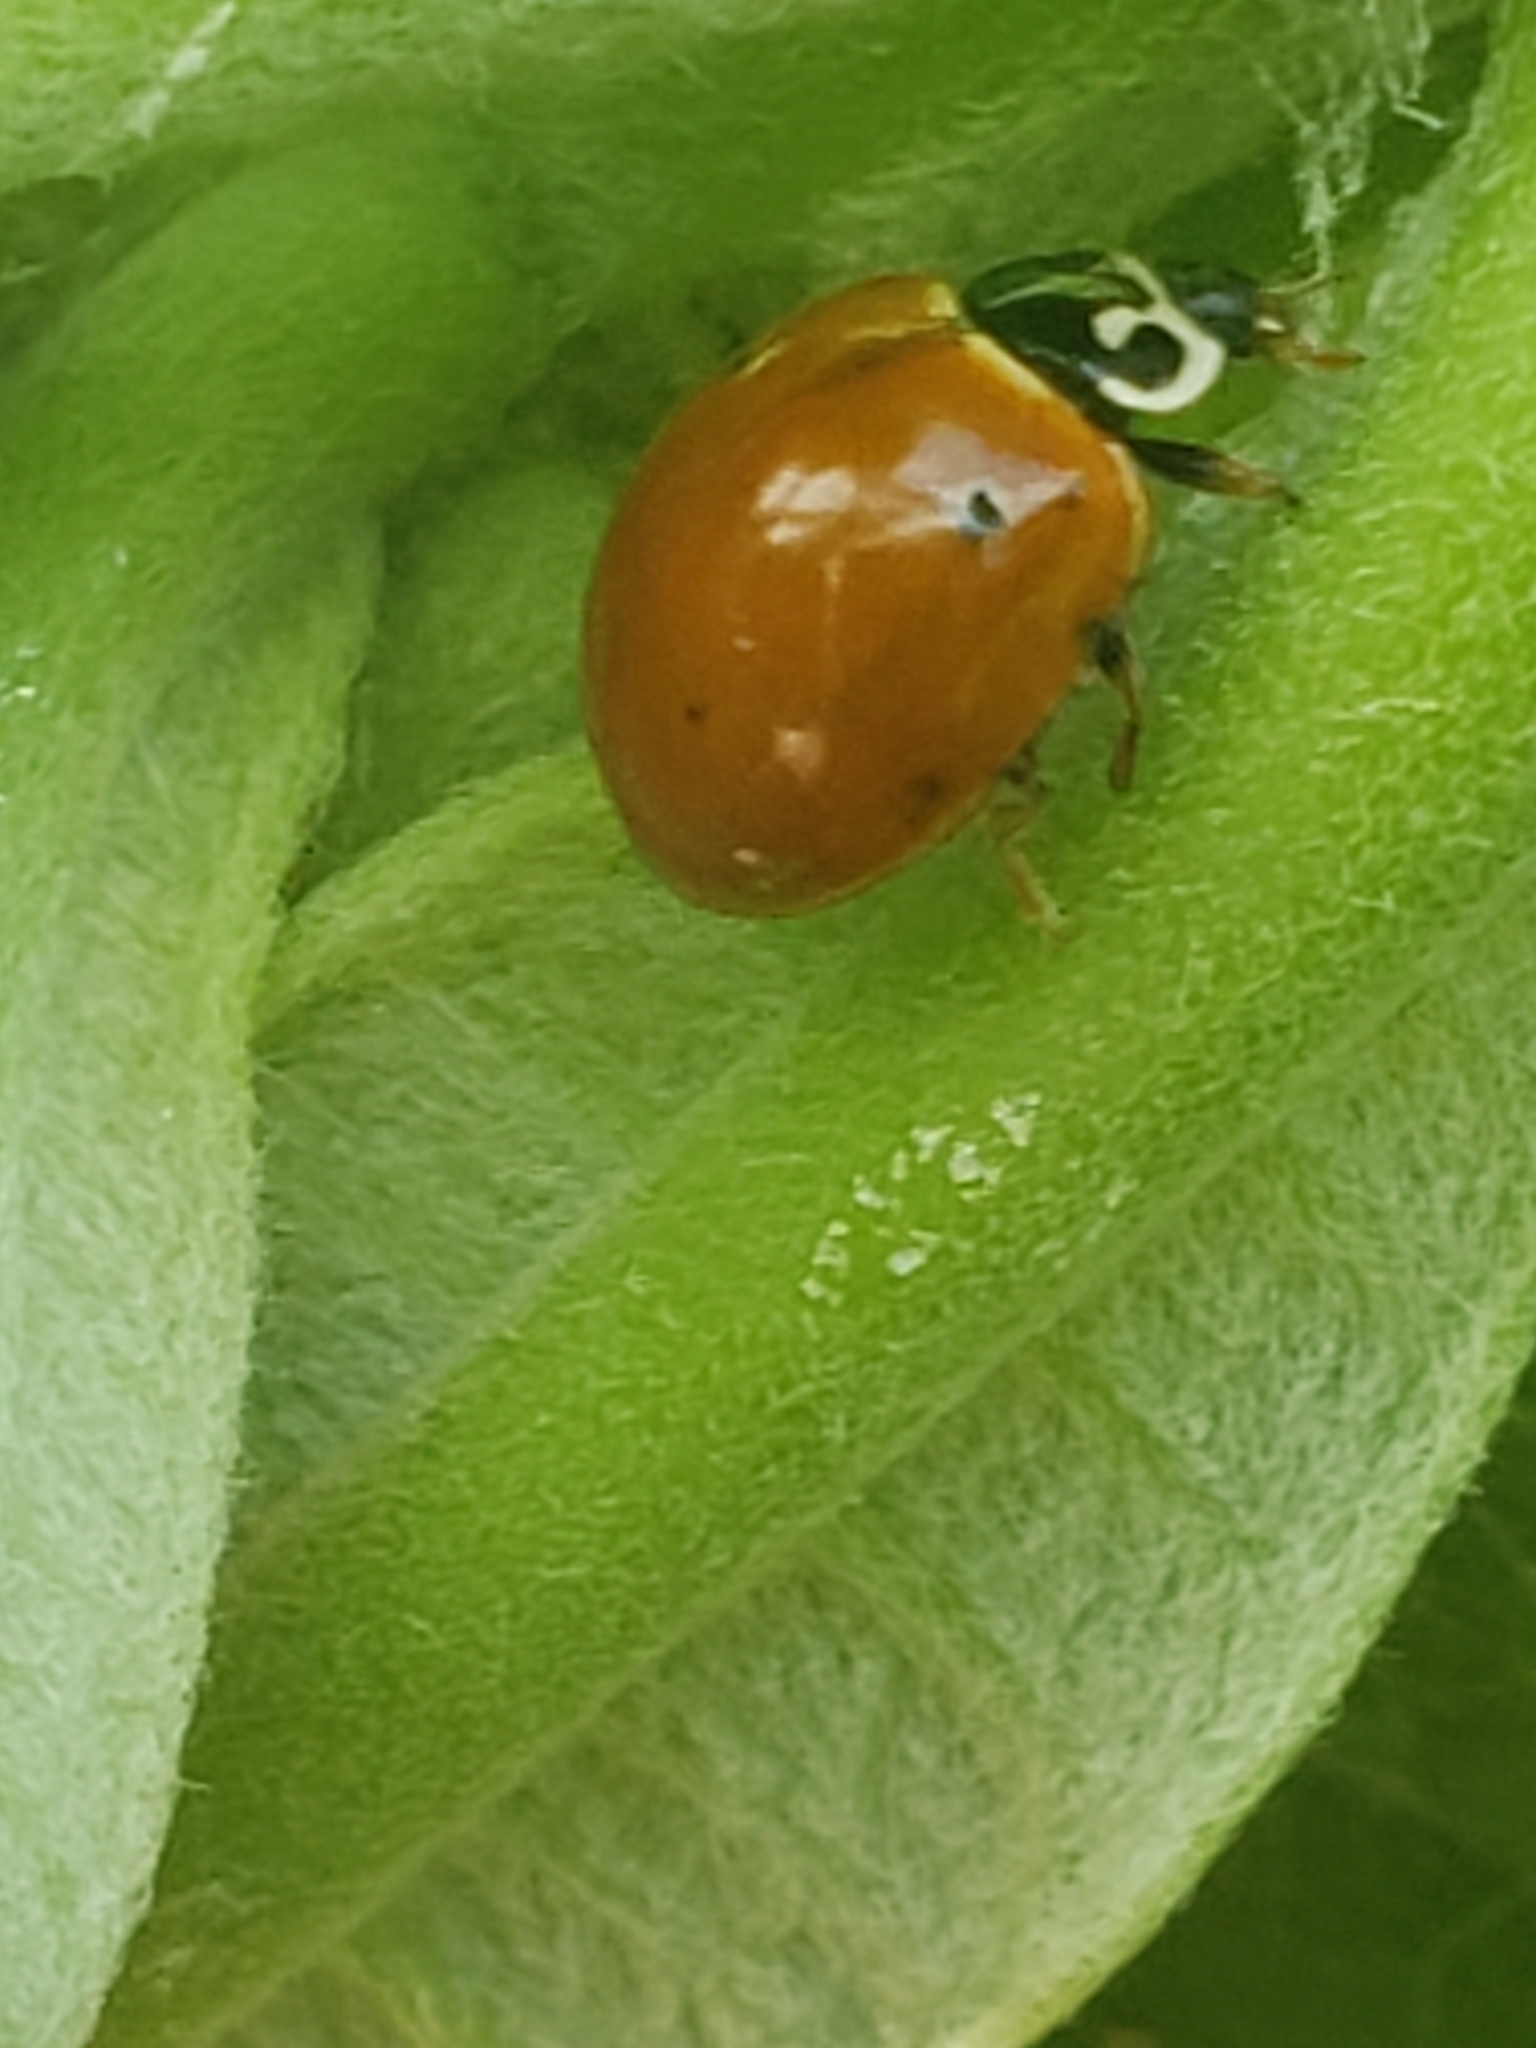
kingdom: Animalia
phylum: Arthropoda
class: Insecta
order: Coleoptera
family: Coccinellidae
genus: Cycloneda
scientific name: Cycloneda munda
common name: Polished lady beetle
